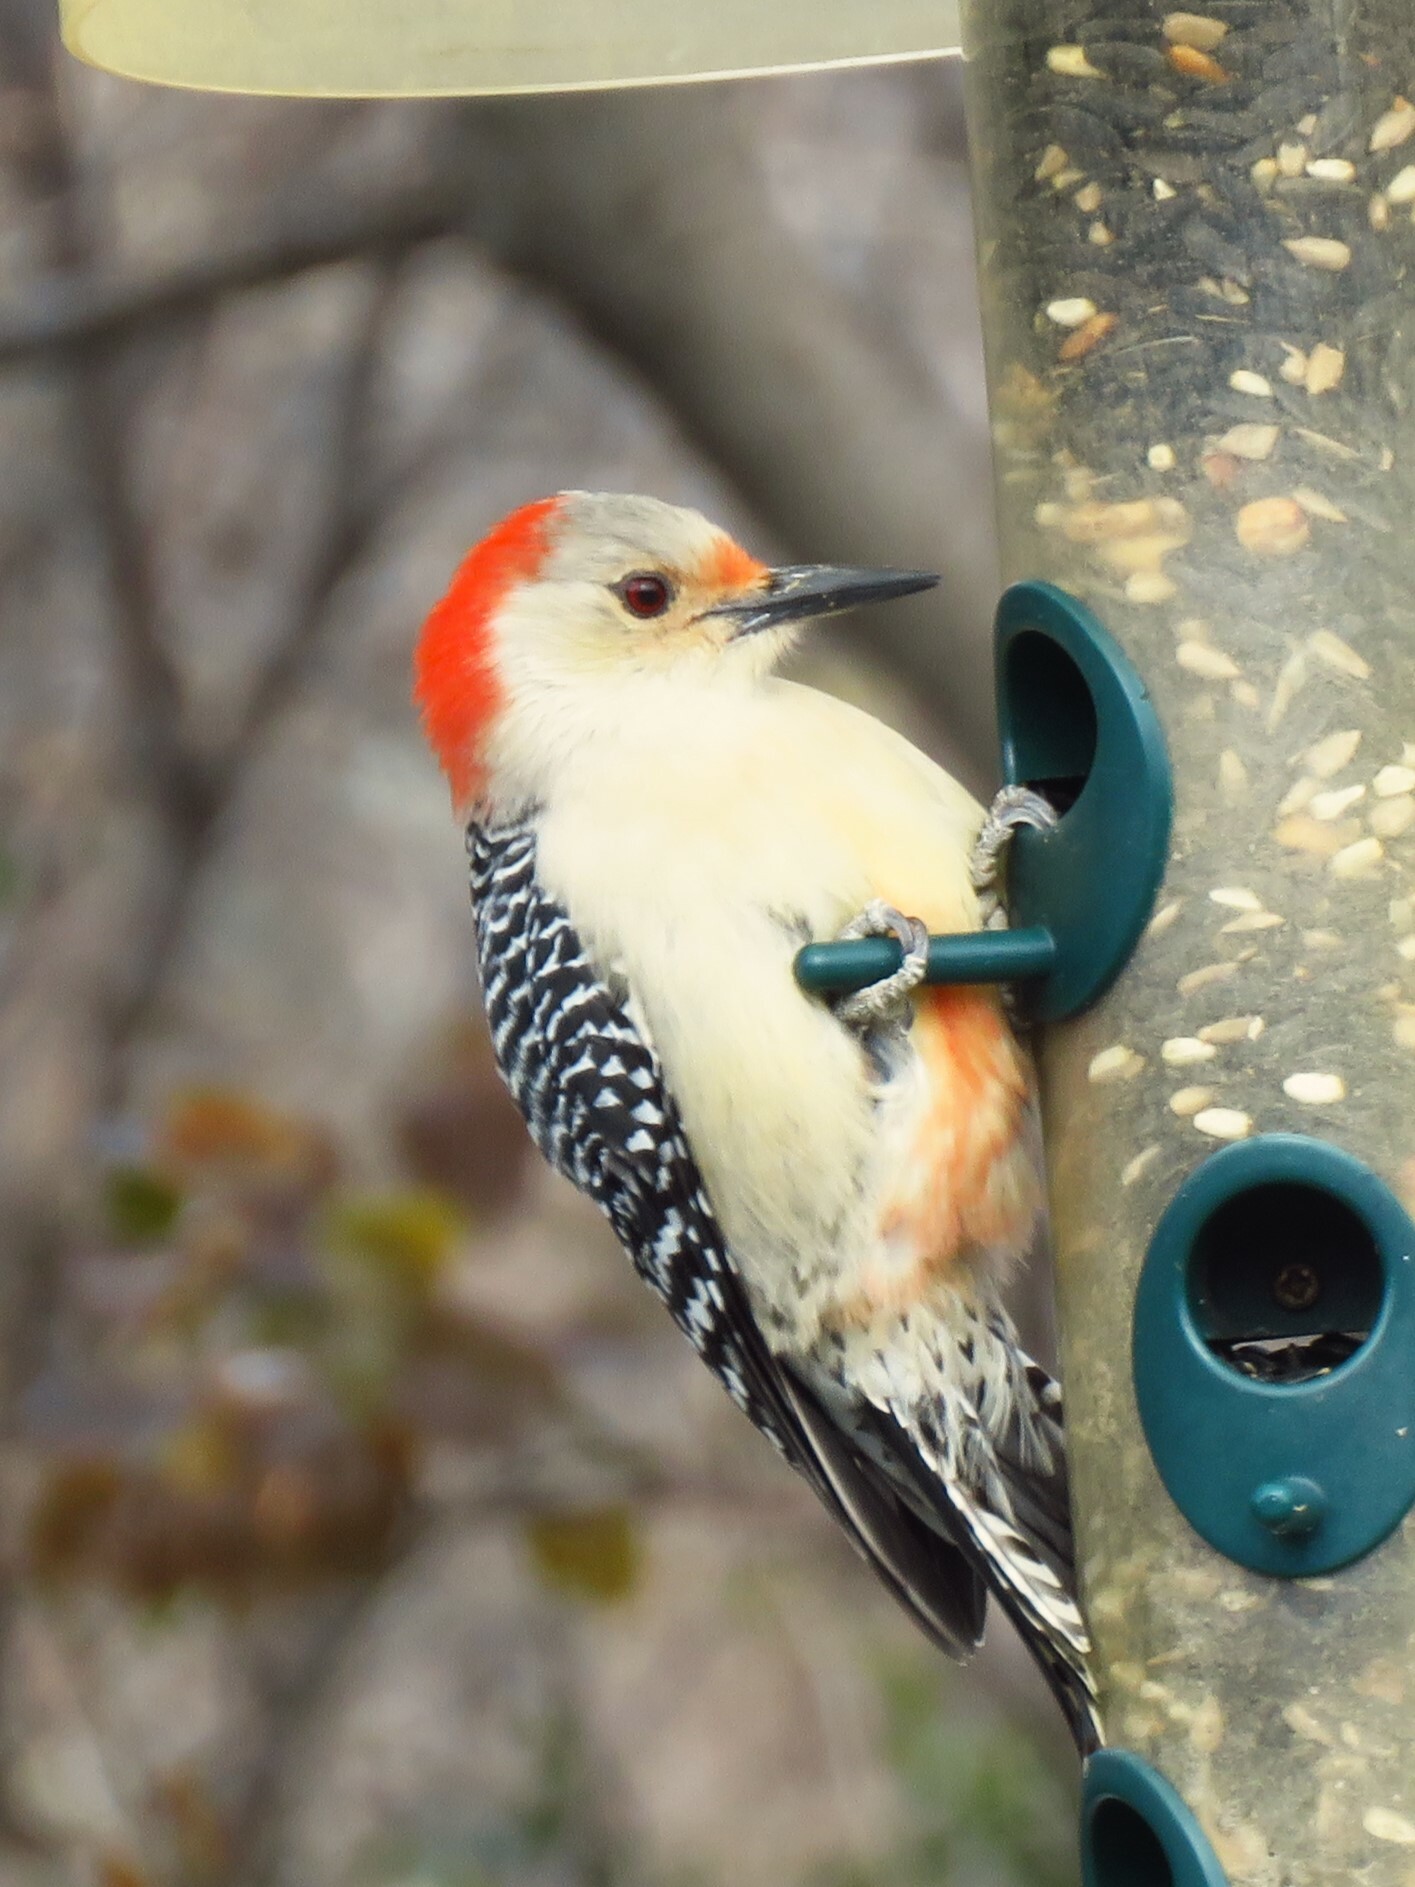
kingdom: Animalia
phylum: Chordata
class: Aves
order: Piciformes
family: Picidae
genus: Melanerpes
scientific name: Melanerpes carolinus
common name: Red-bellied woodpecker
